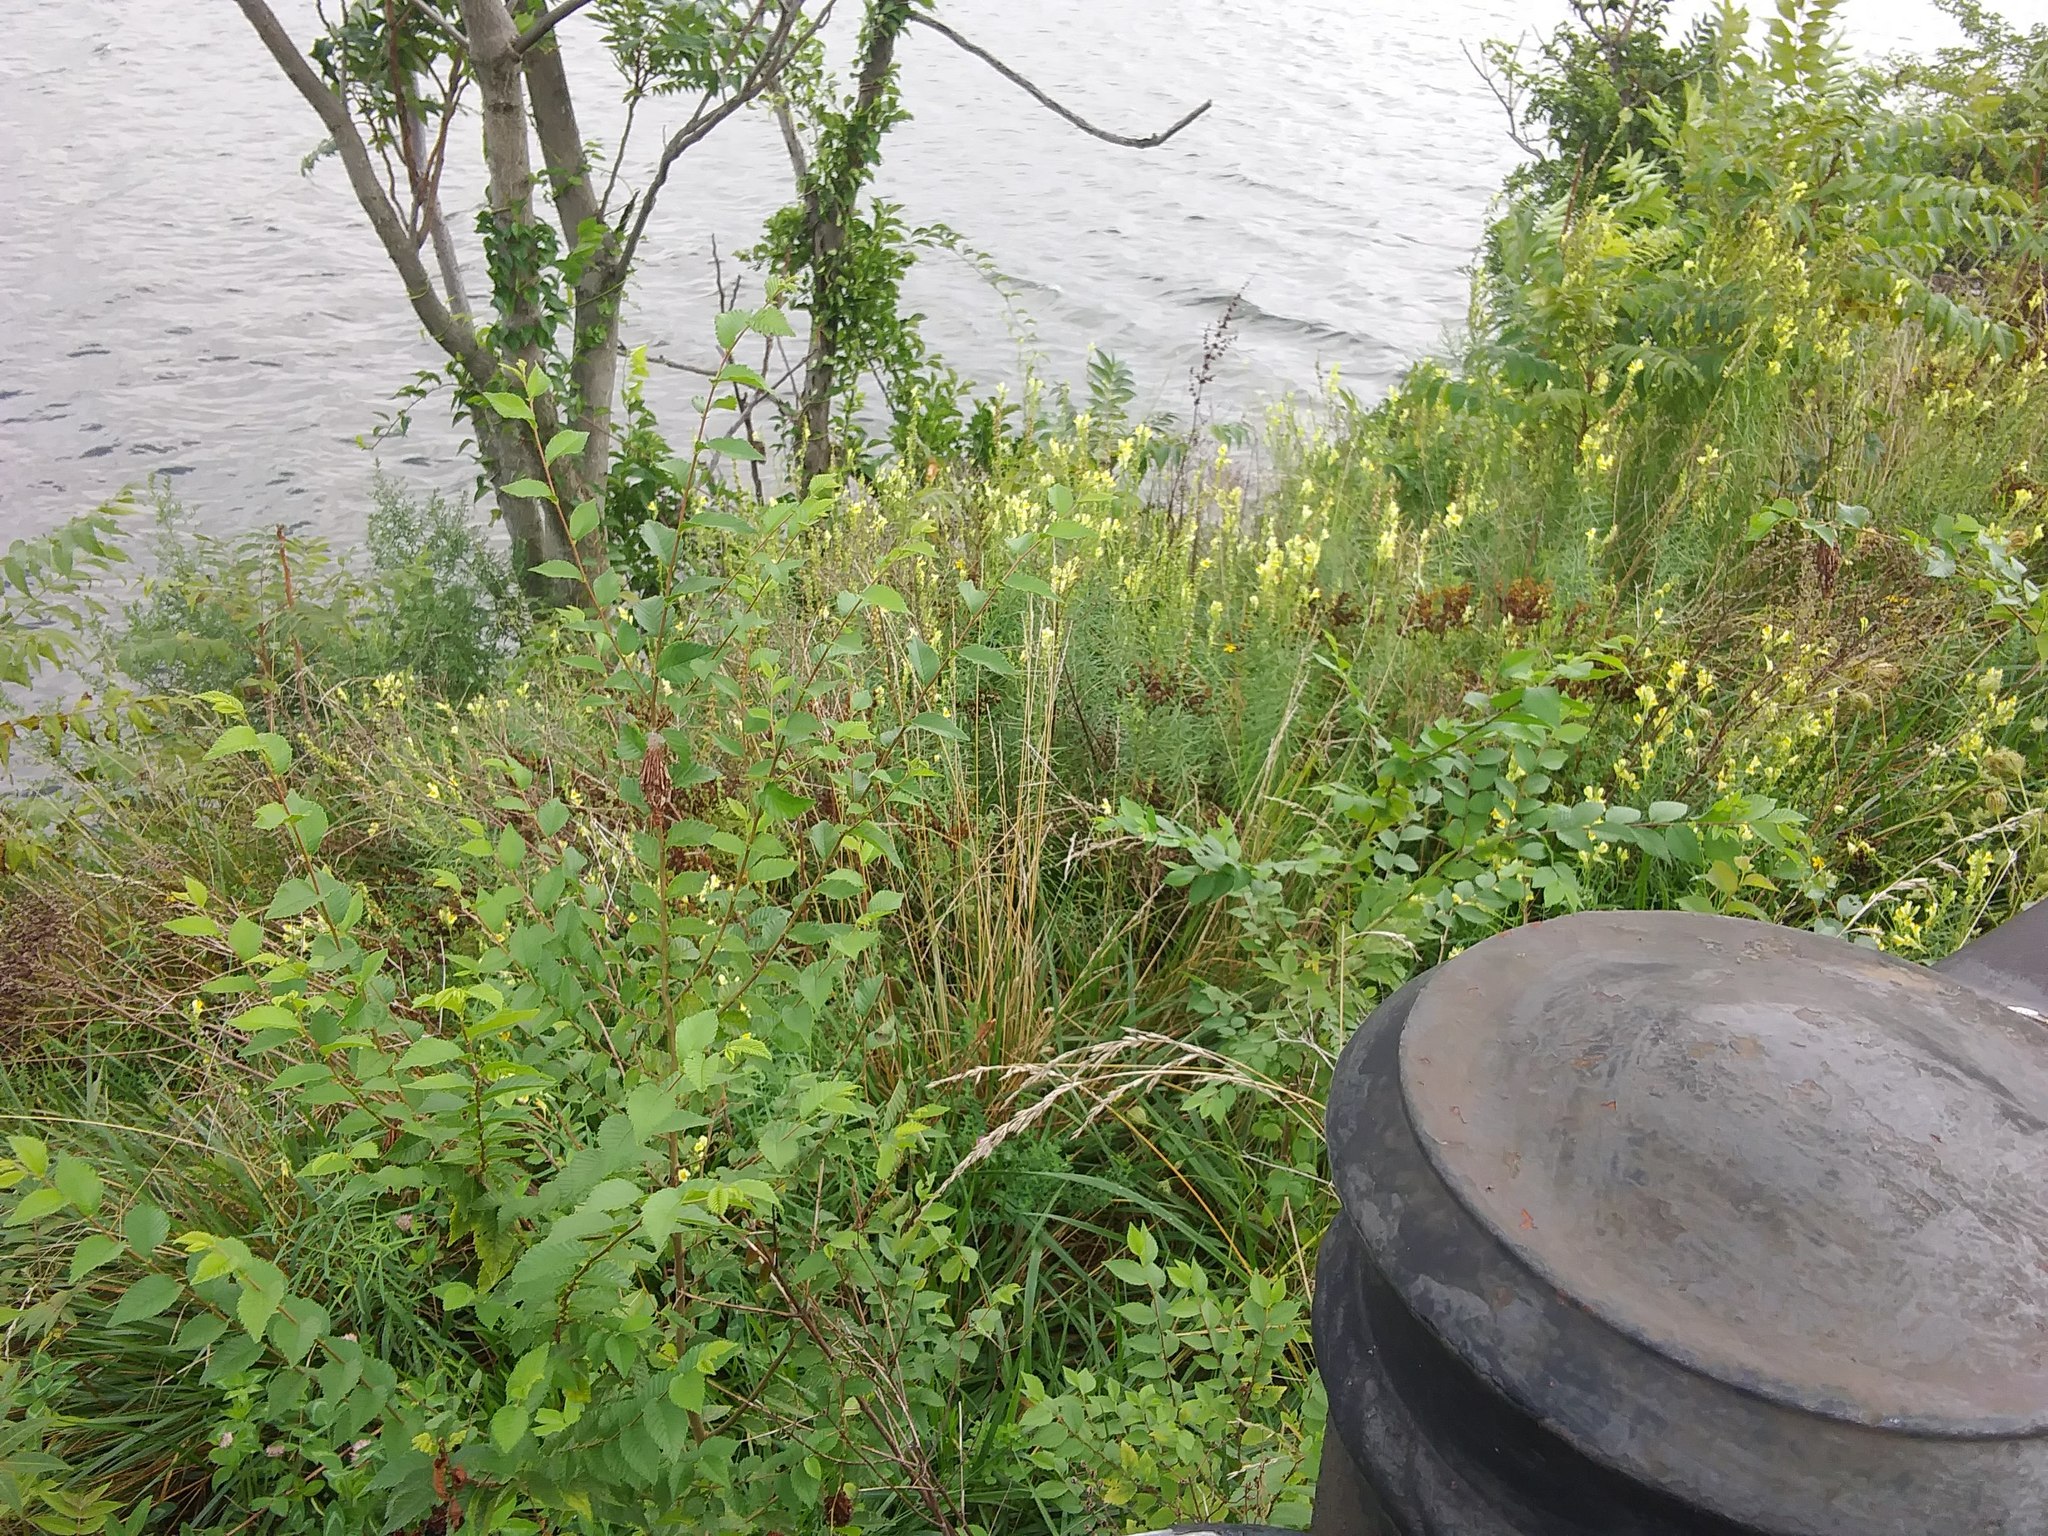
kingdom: Plantae
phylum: Tracheophyta
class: Magnoliopsida
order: Lamiales
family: Plantaginaceae
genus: Linaria
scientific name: Linaria vulgaris
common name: Butter and eggs
